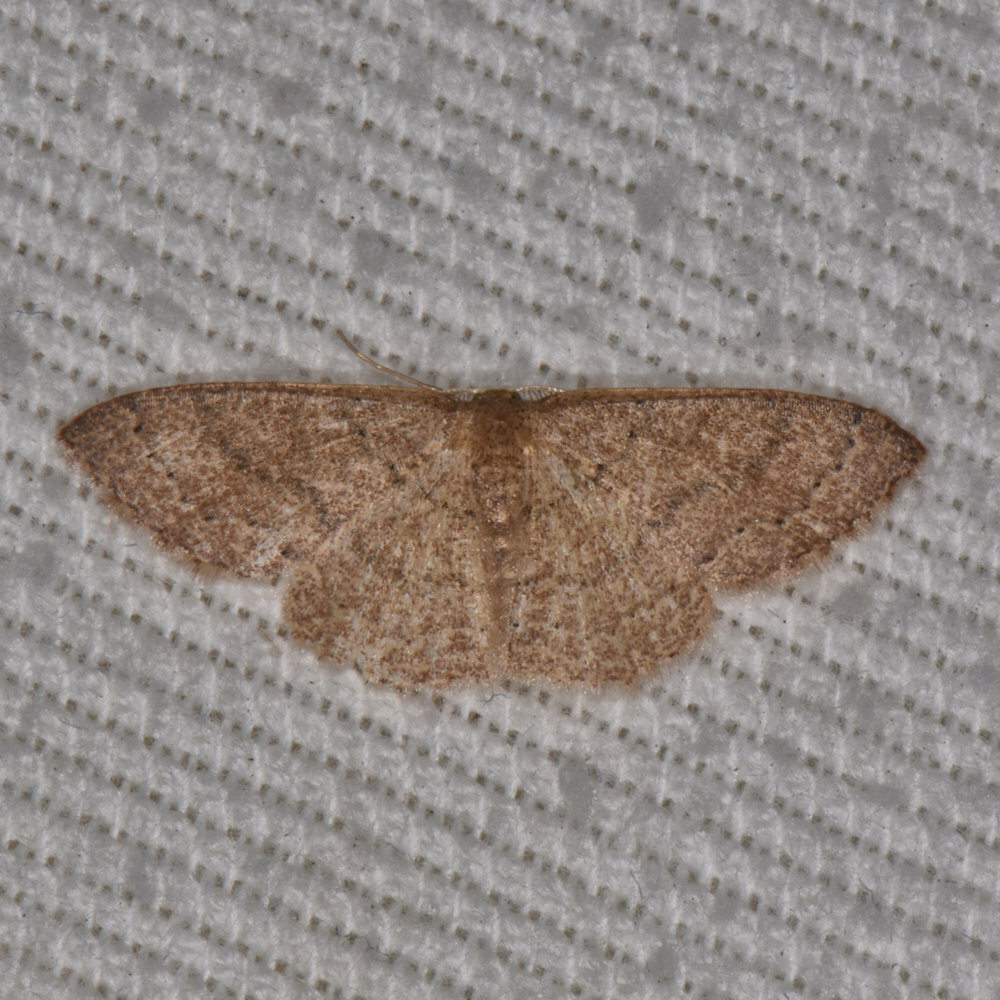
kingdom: Animalia
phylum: Arthropoda
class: Insecta
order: Lepidoptera
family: Geometridae
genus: Pleuroprucha
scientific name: Pleuroprucha insulsaria
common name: Common tan wave
